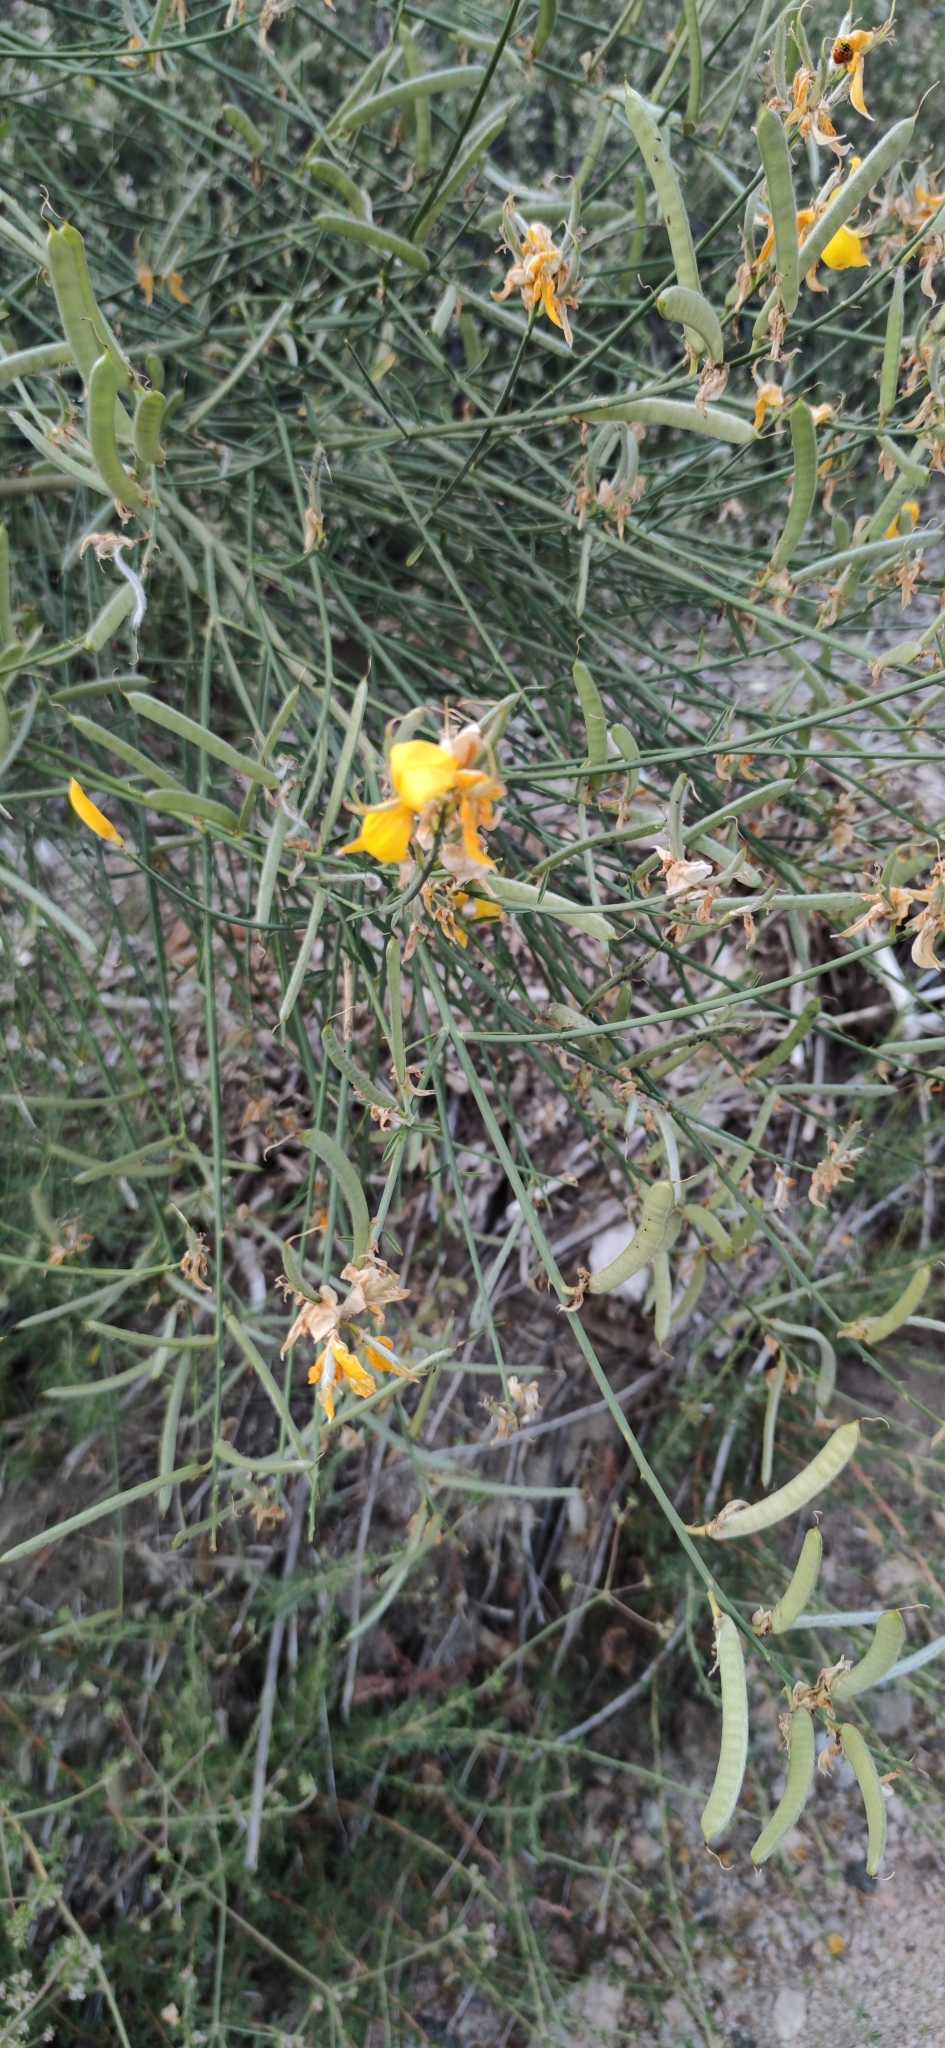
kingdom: Plantae
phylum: Tracheophyta
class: Magnoliopsida
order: Fabales
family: Fabaceae
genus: Spartium
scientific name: Spartium junceum
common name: Spanish broom
